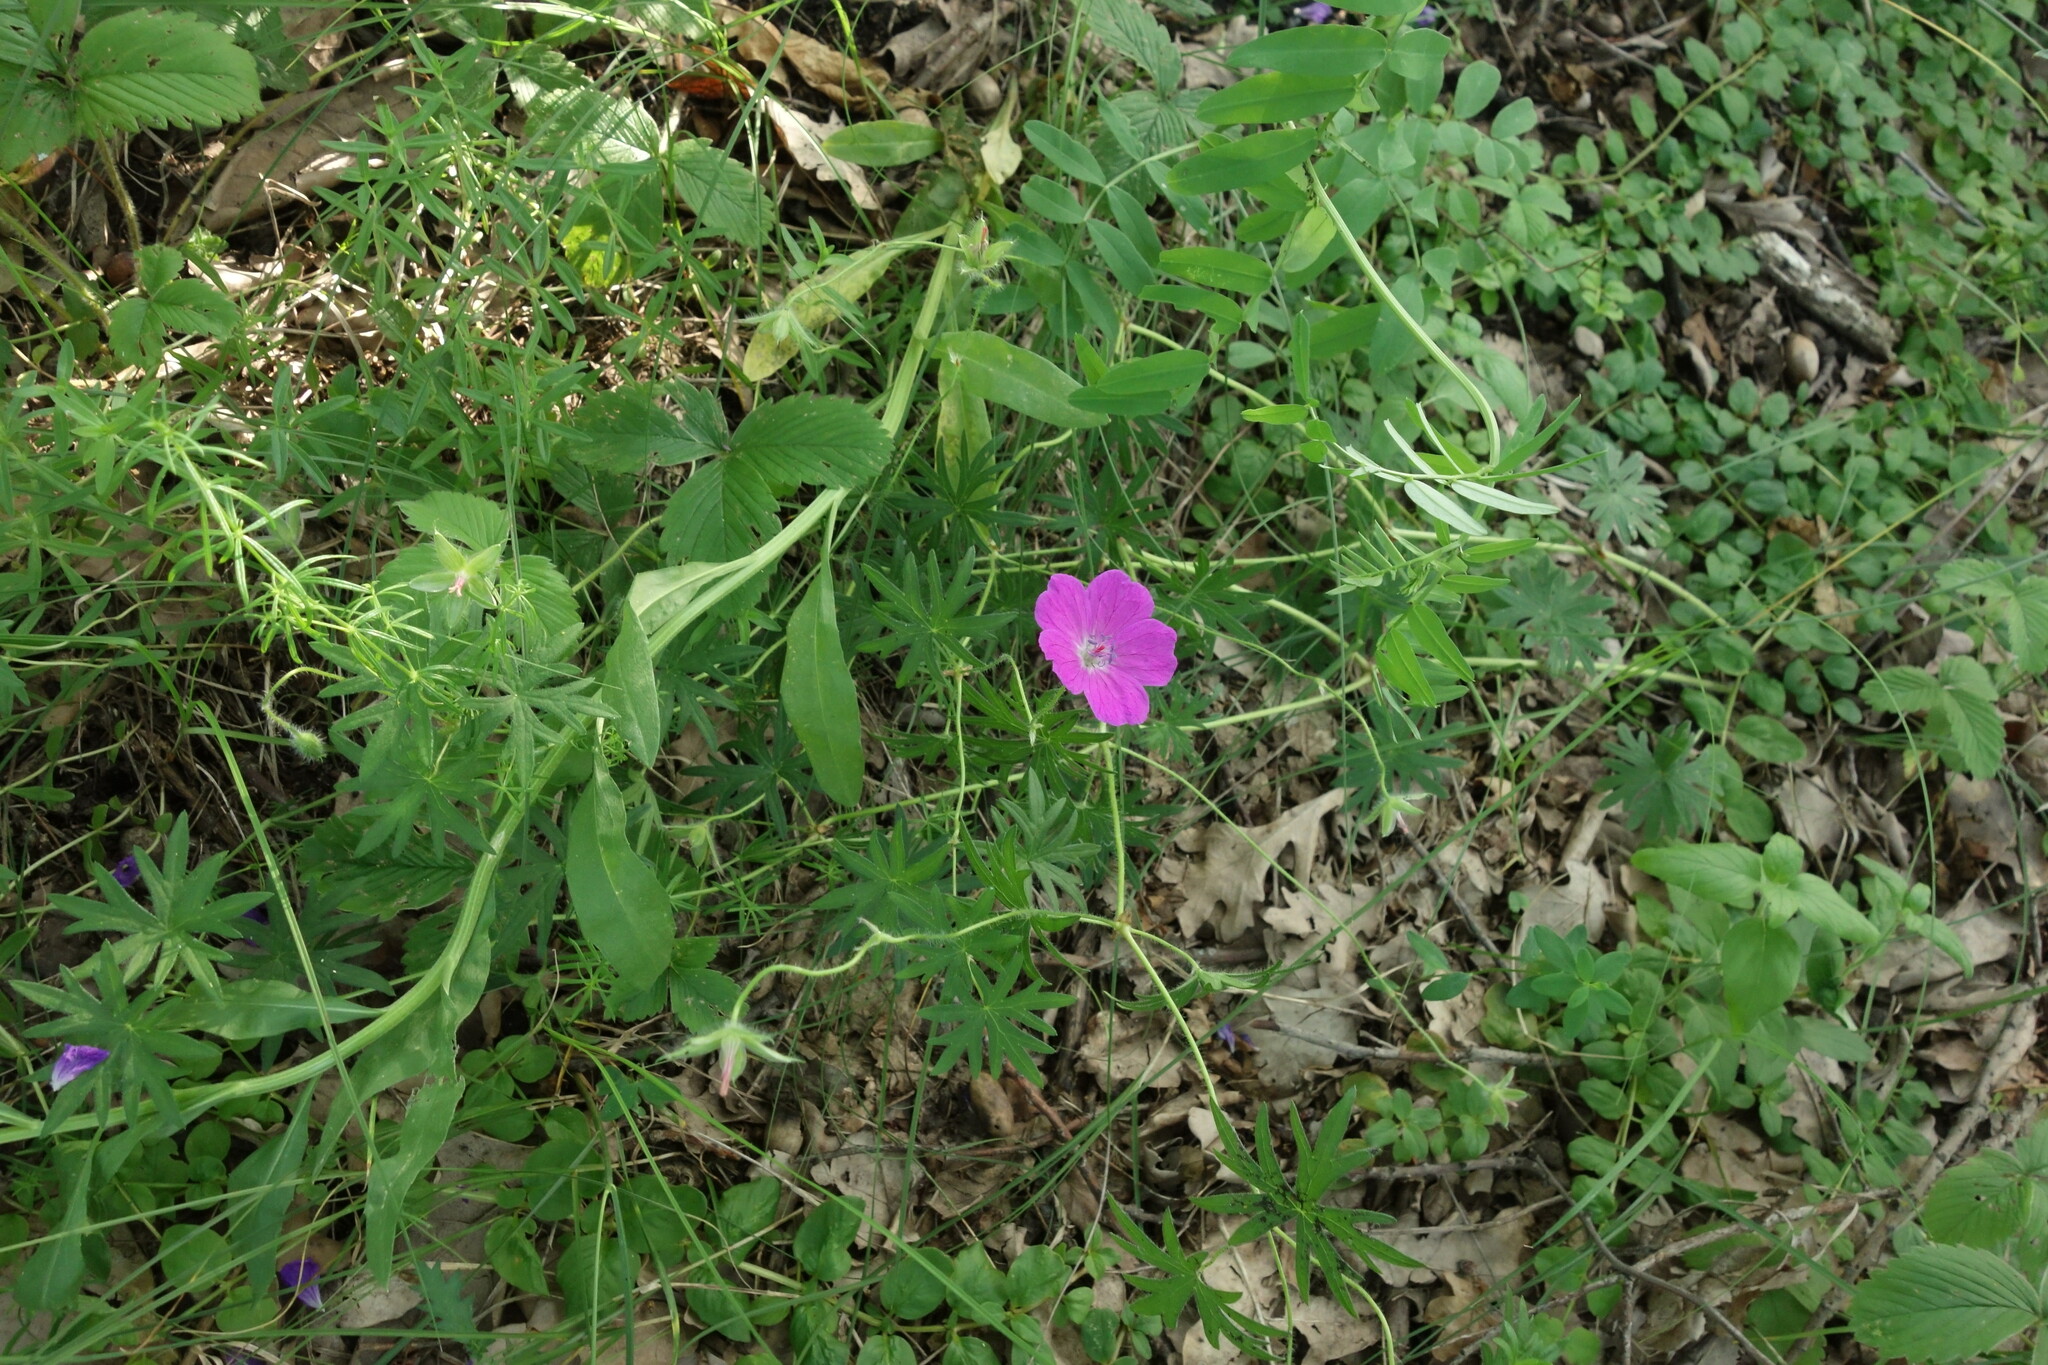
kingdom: Plantae
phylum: Tracheophyta
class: Magnoliopsida
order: Geraniales
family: Geraniaceae
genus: Geranium
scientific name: Geranium sanguineum
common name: Bloody crane's-bill
